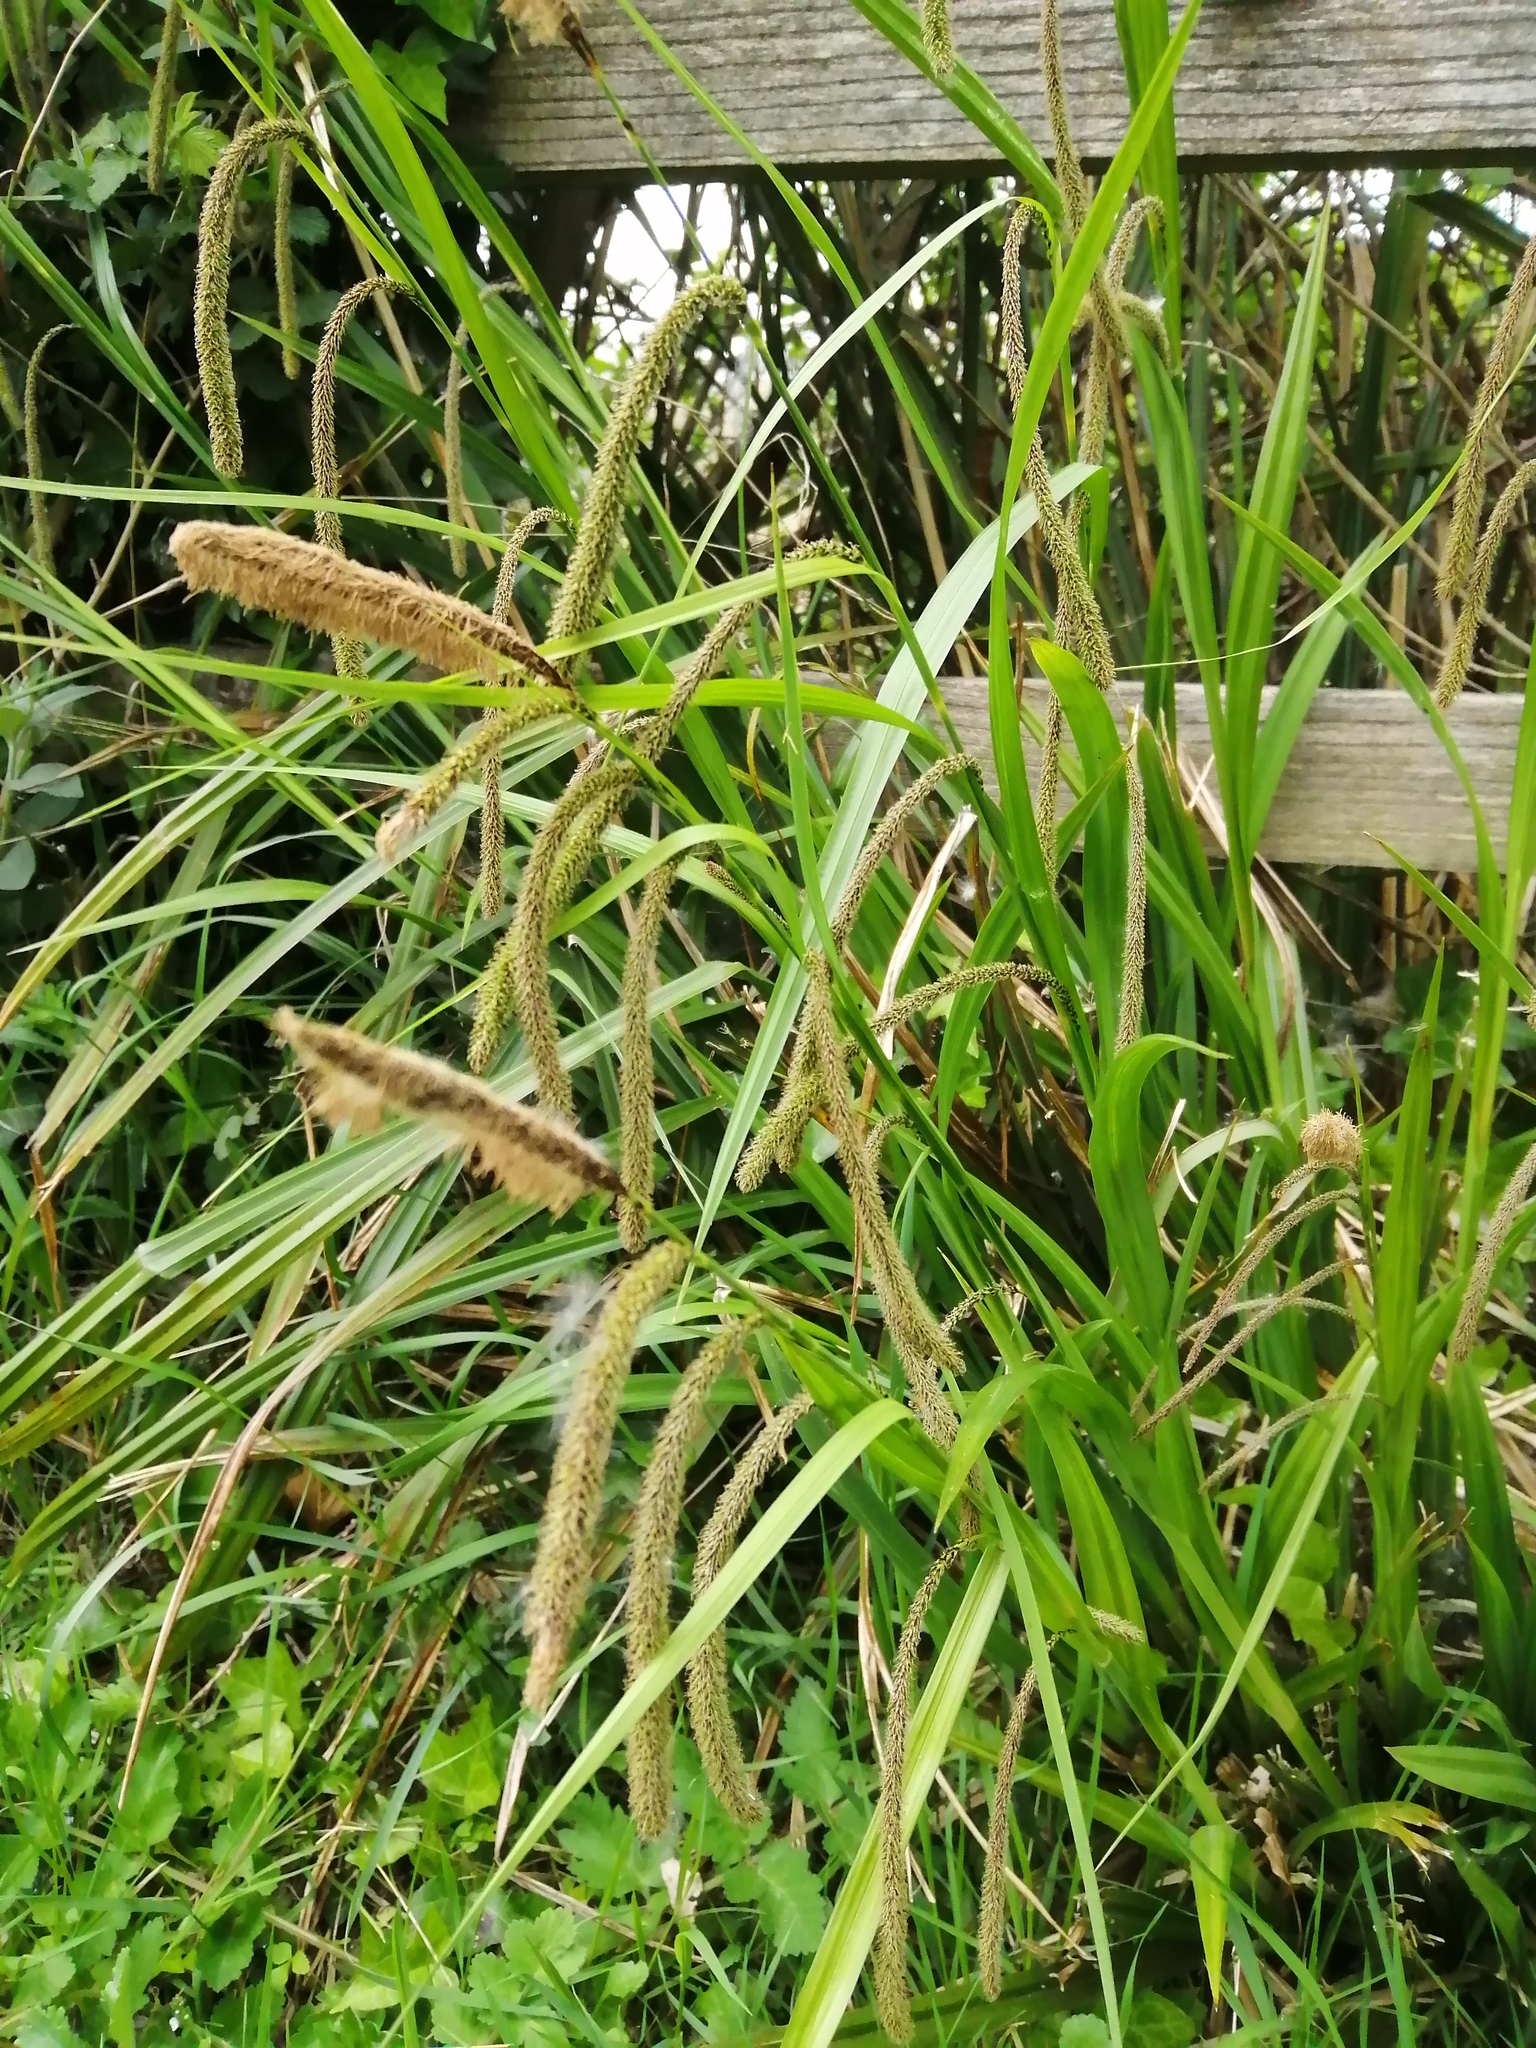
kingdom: Plantae
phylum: Tracheophyta
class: Liliopsida
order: Poales
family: Cyperaceae
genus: Carex
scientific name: Carex pendula
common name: Pendulous sedge
